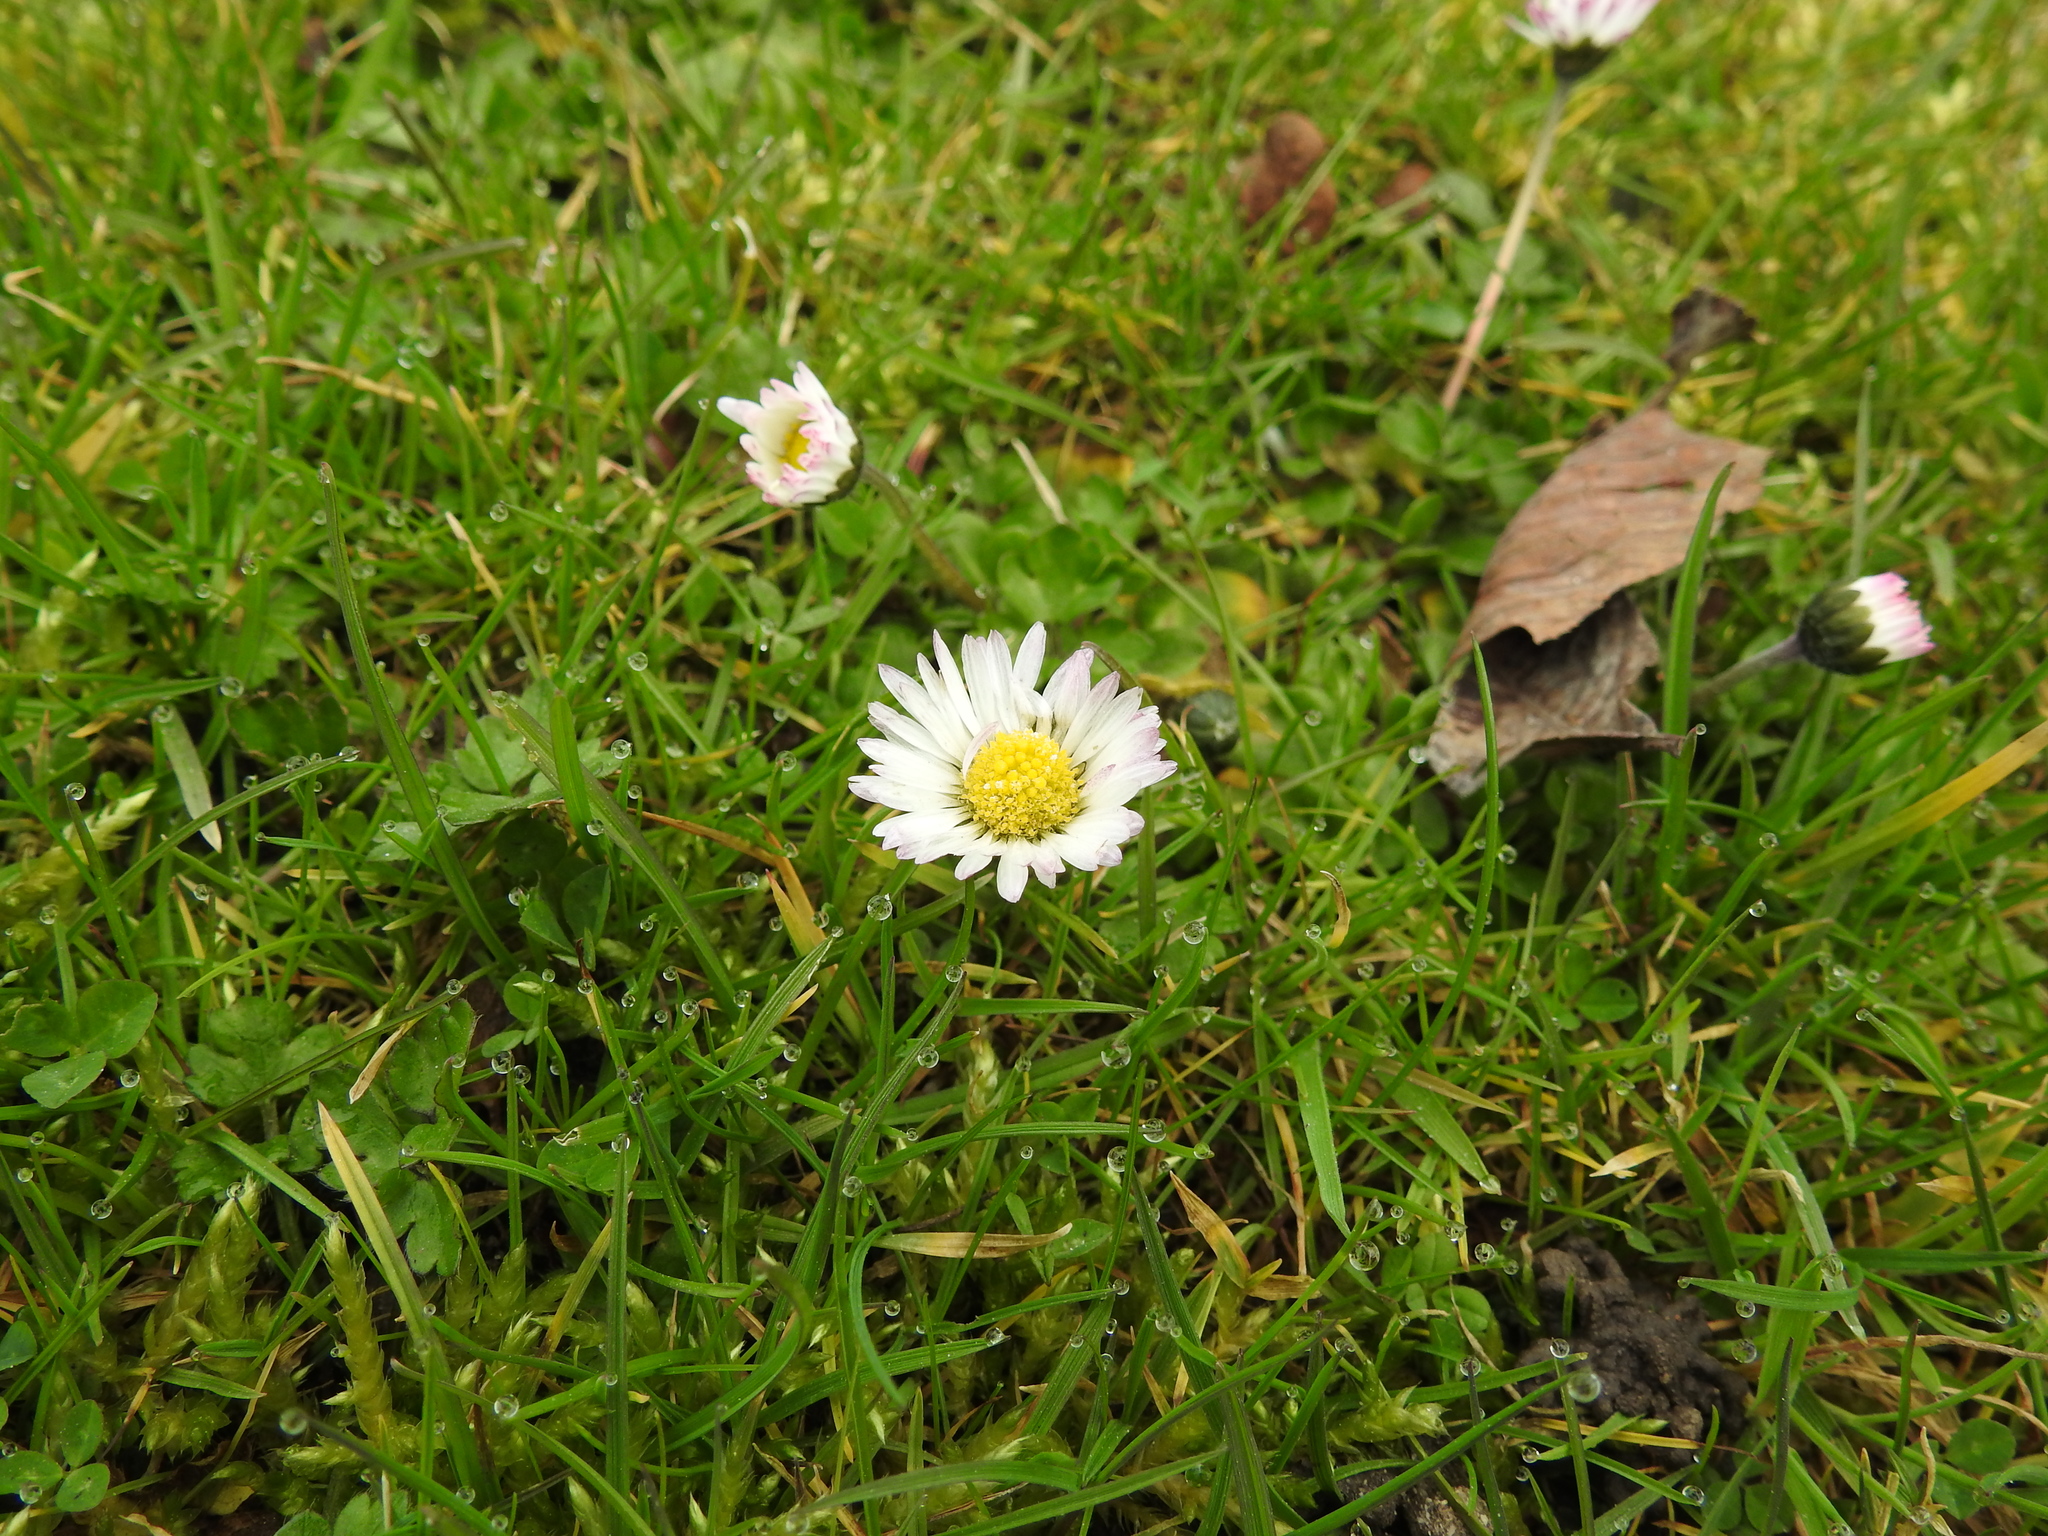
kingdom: Plantae
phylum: Tracheophyta
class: Magnoliopsida
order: Asterales
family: Asteraceae
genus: Bellis
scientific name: Bellis perennis
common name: Lawndaisy
